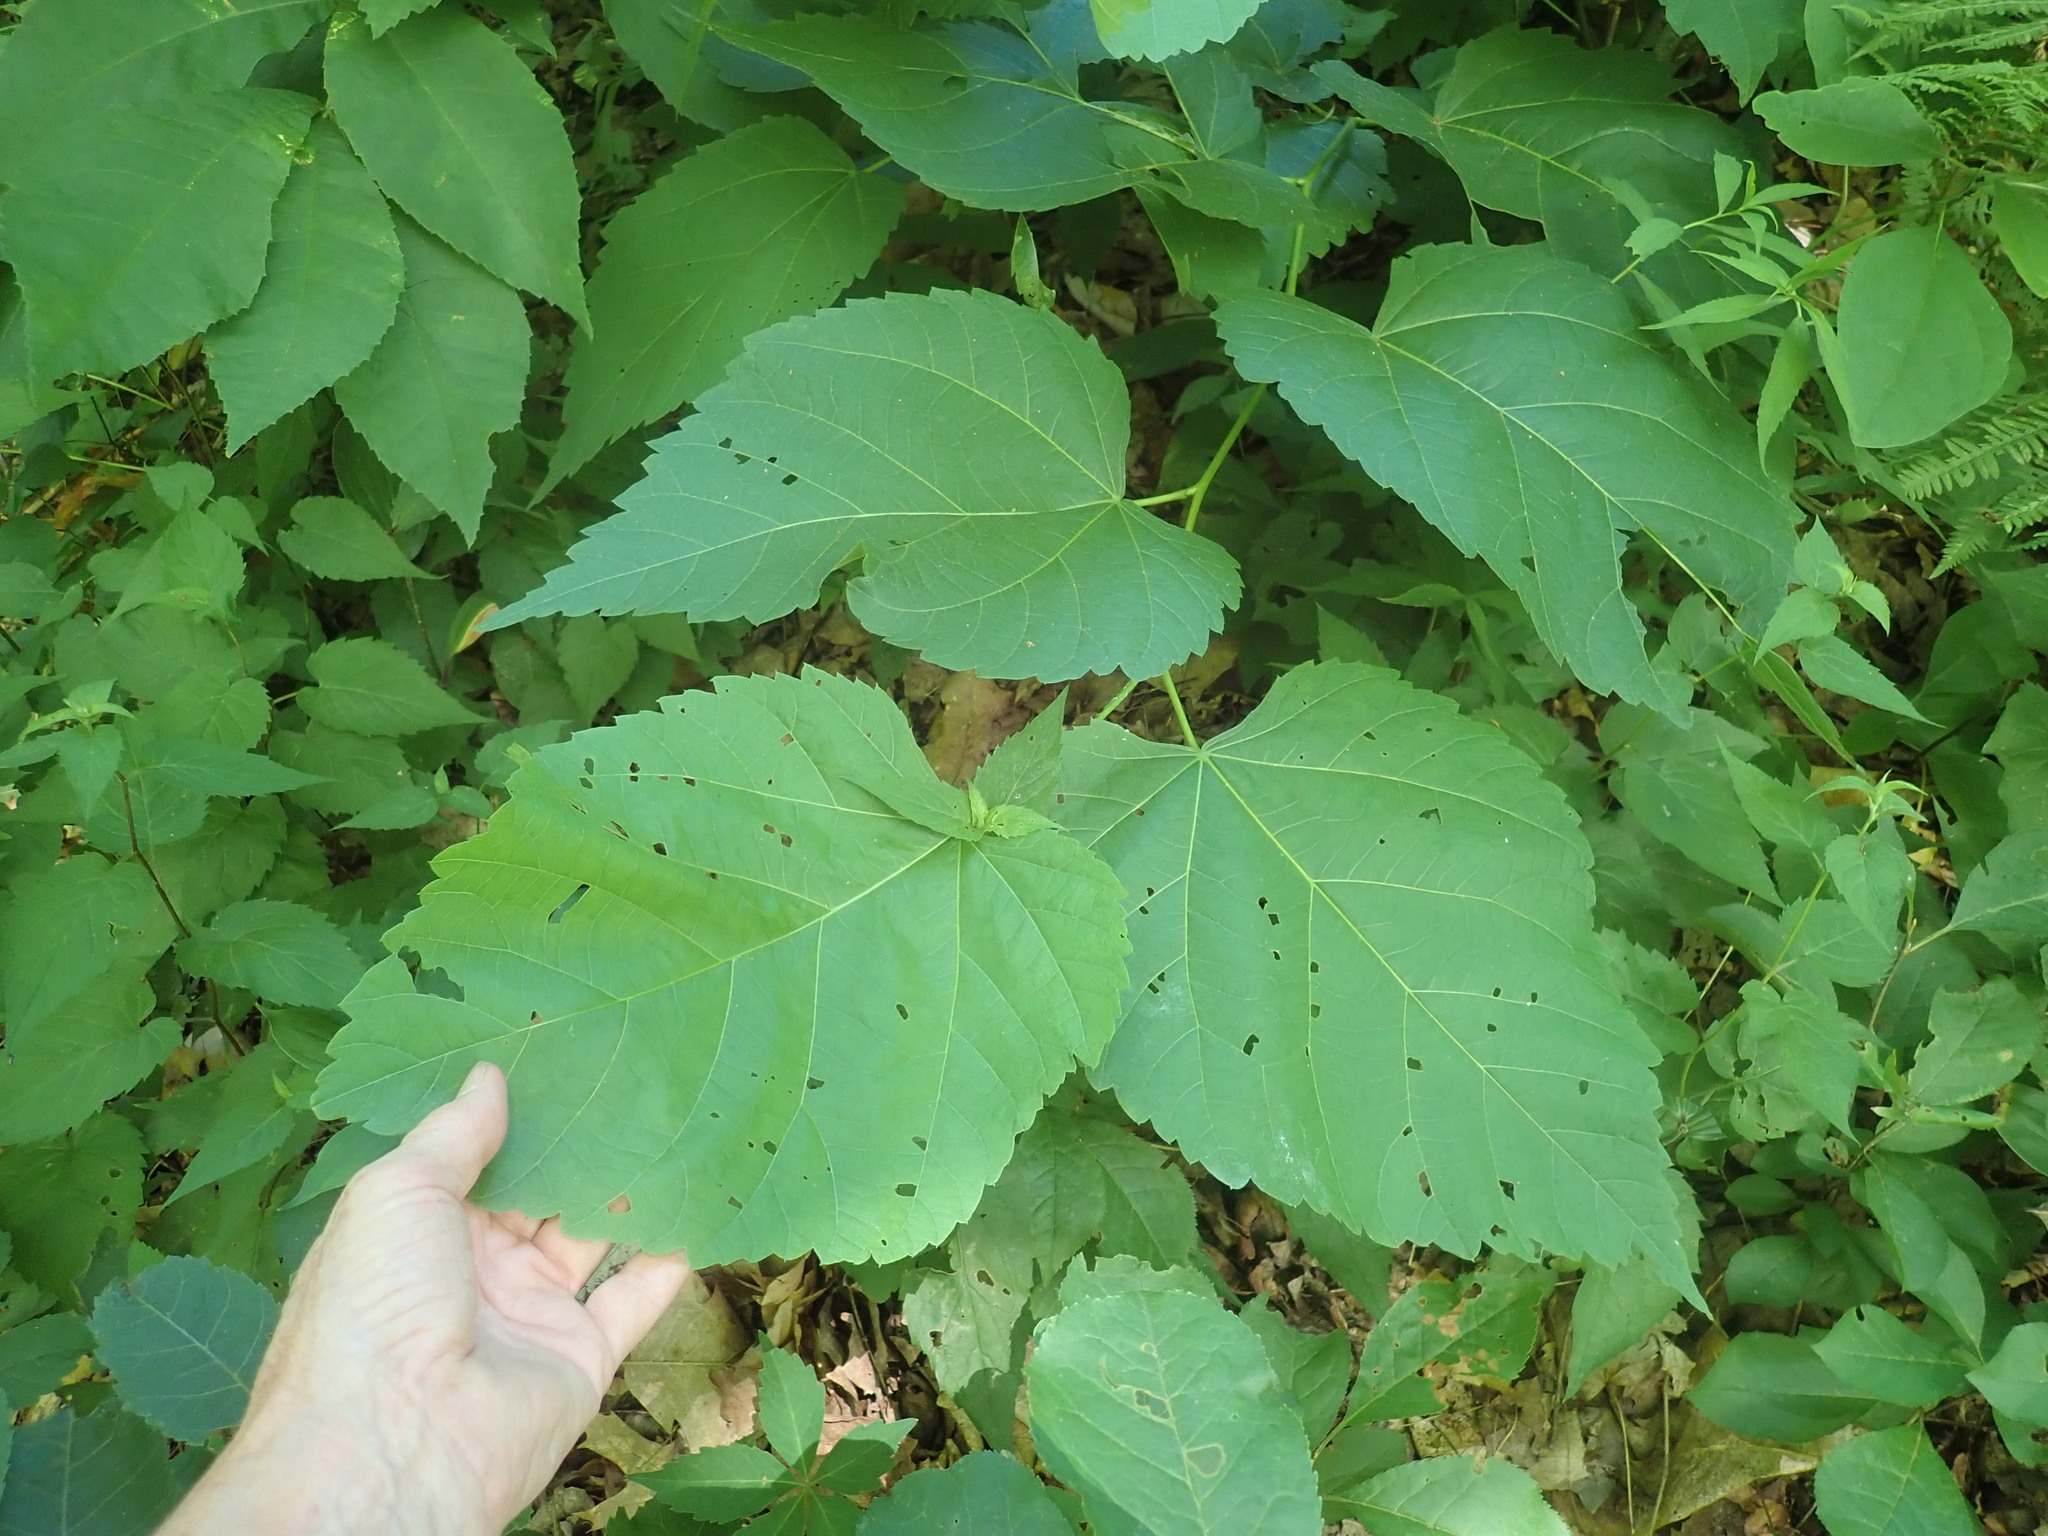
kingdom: Plantae
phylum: Tracheophyta
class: Magnoliopsida
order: Malvales
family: Malvaceae
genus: Tilia
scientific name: Tilia americana
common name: Basswood
